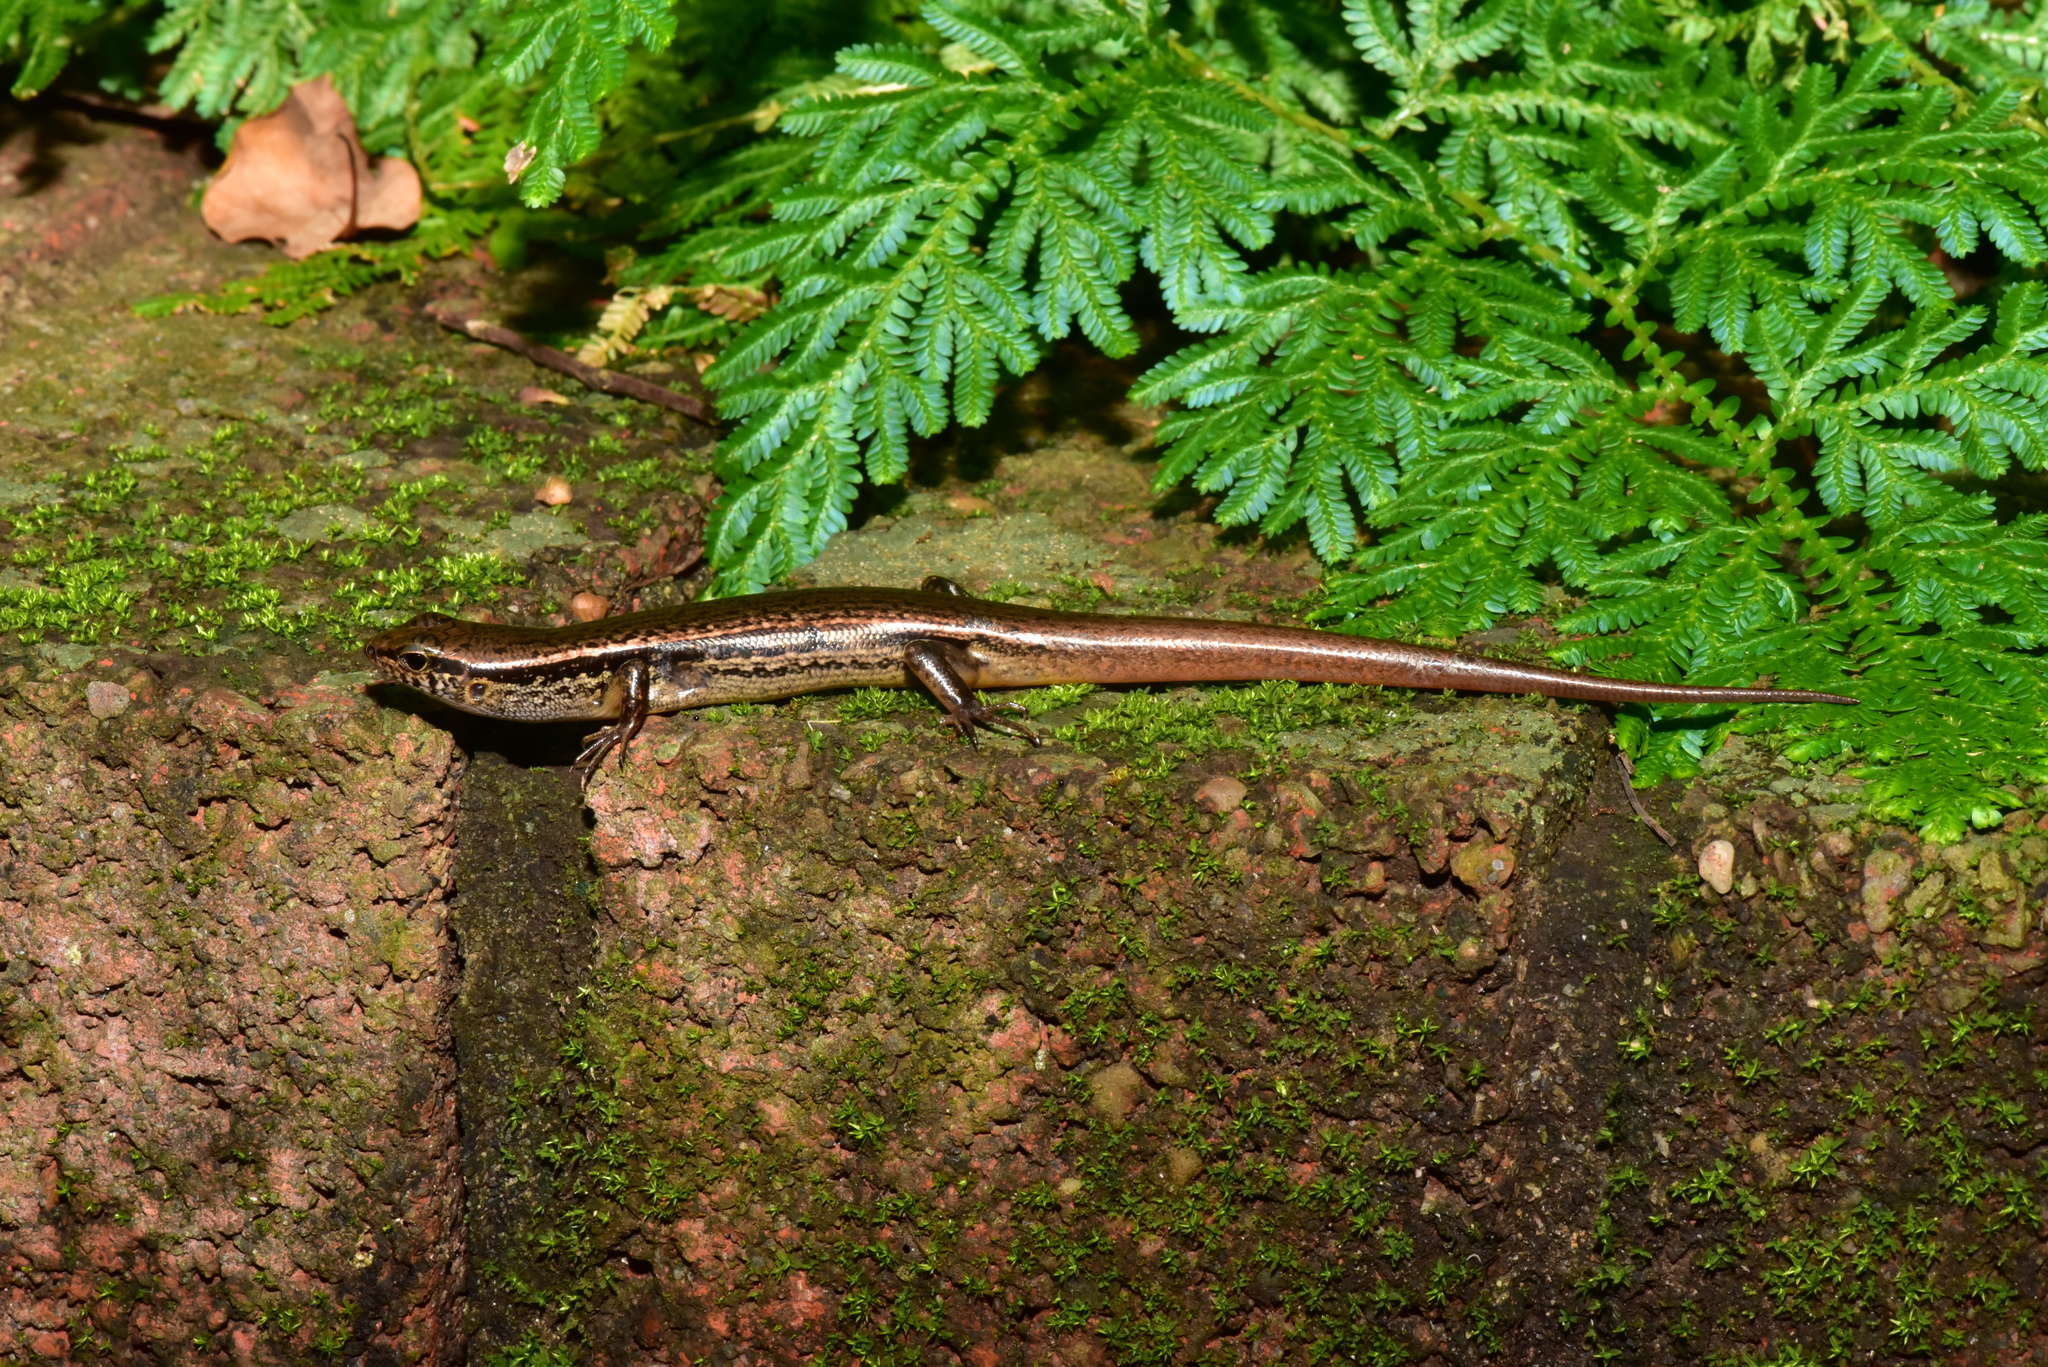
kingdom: Animalia
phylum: Chordata
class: Squamata
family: Scincidae
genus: Sphenomorphus
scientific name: Sphenomorphus indicus
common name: Himalayan forest skink
